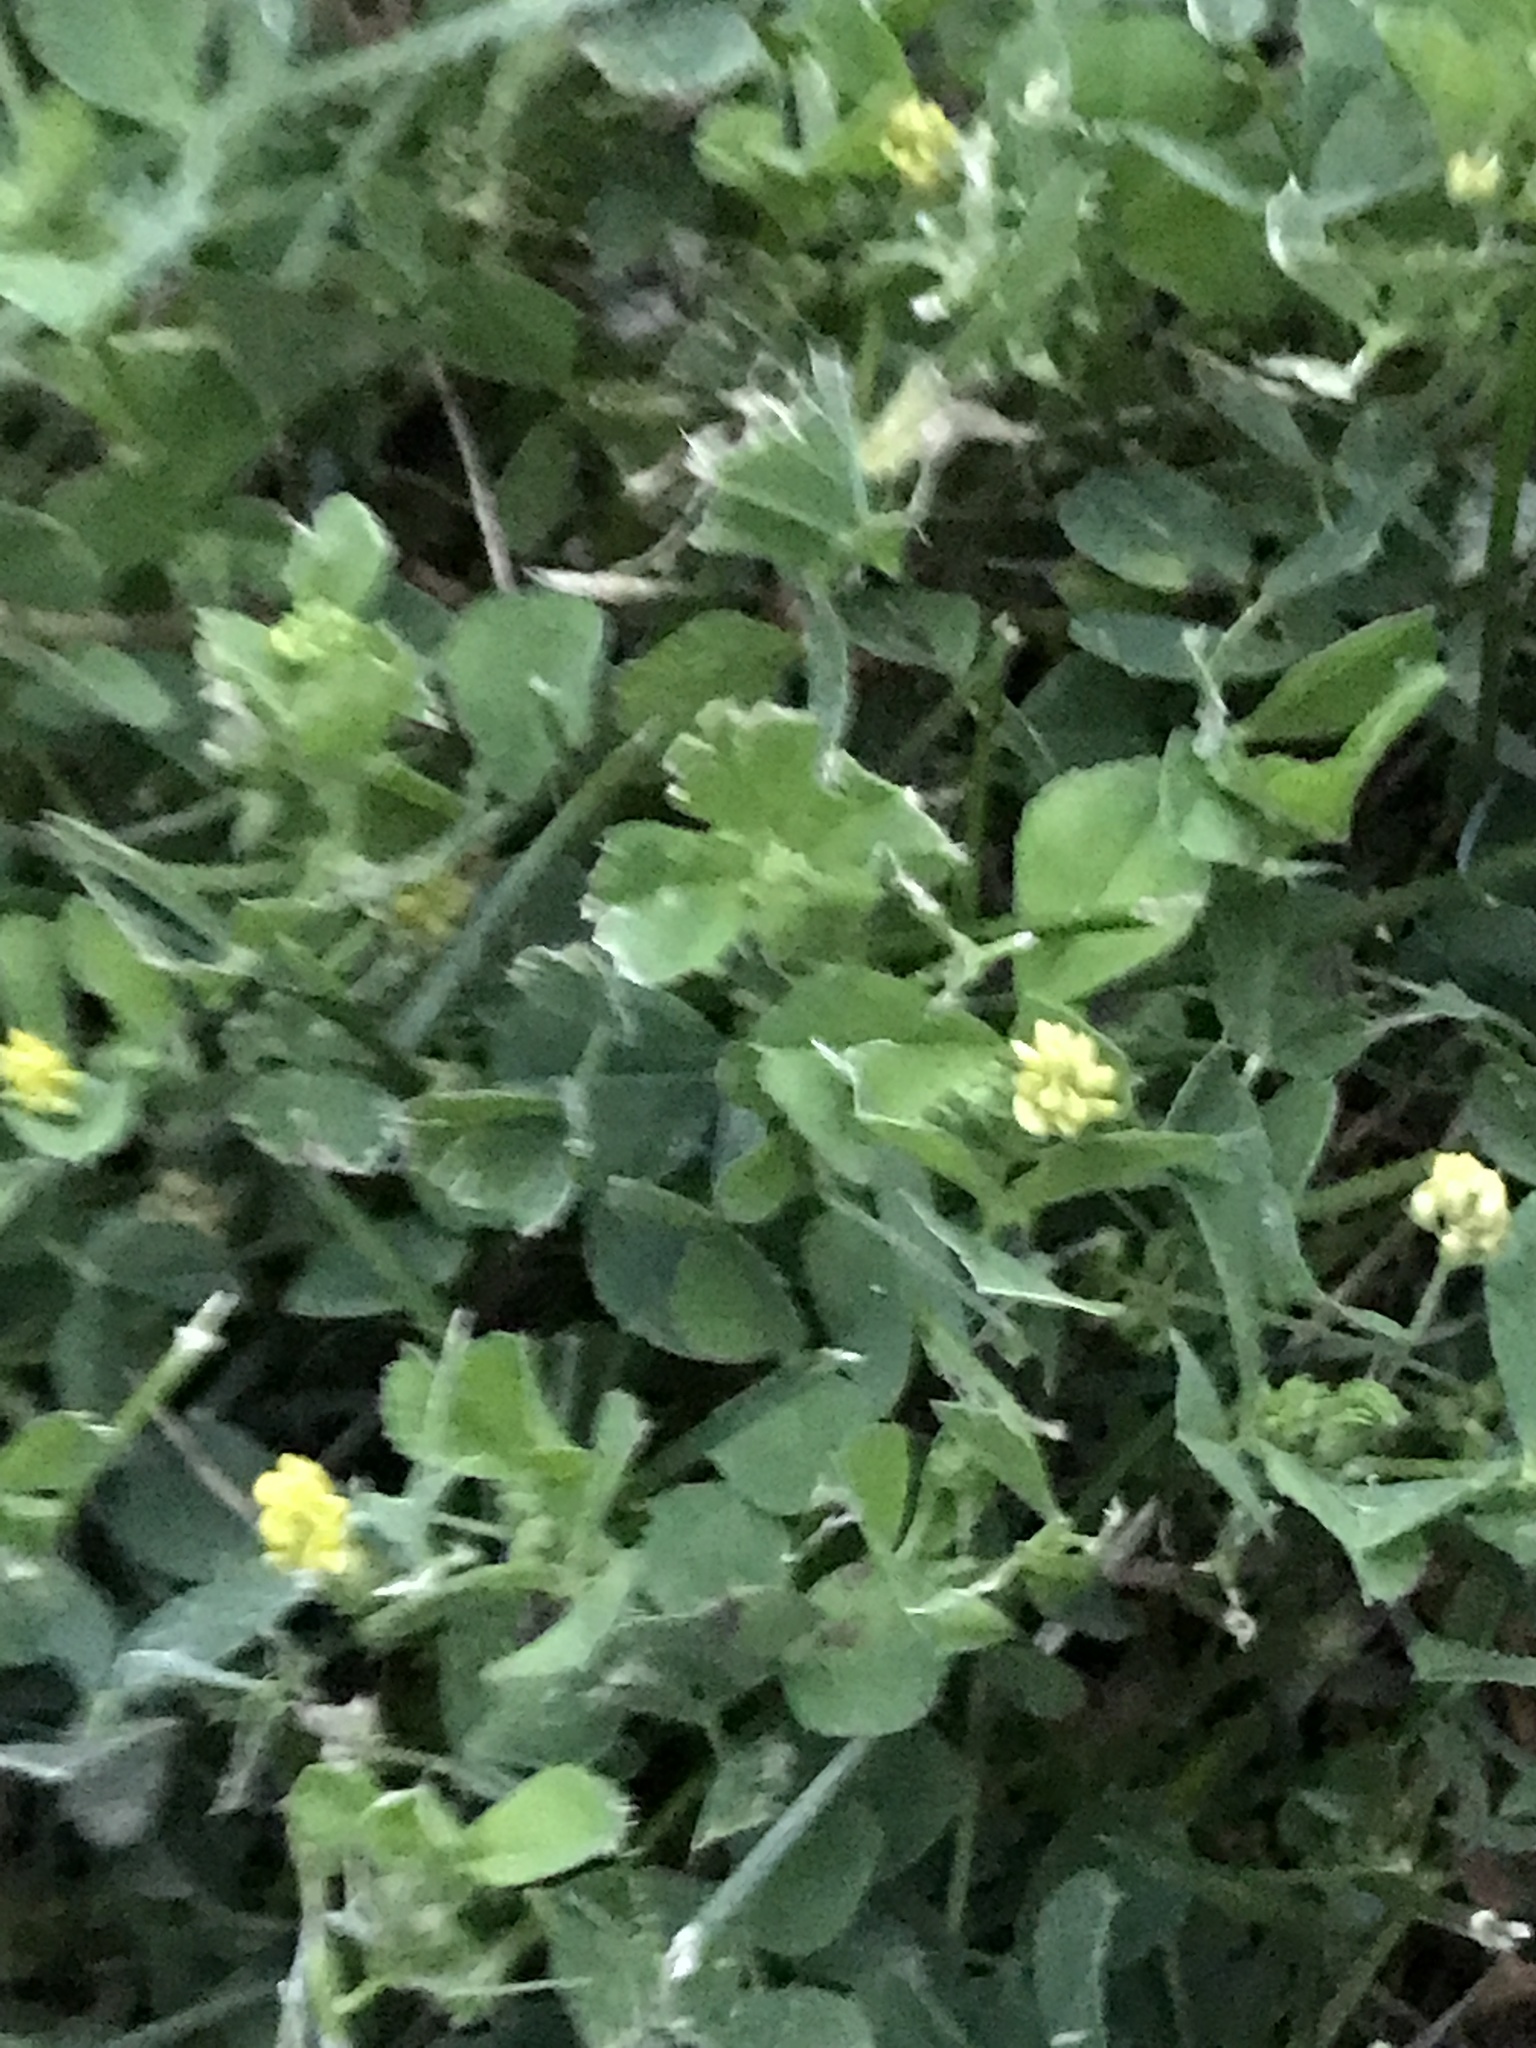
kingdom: Plantae
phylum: Tracheophyta
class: Magnoliopsida
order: Fabales
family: Fabaceae
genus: Medicago
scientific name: Medicago lupulina
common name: Black medick
